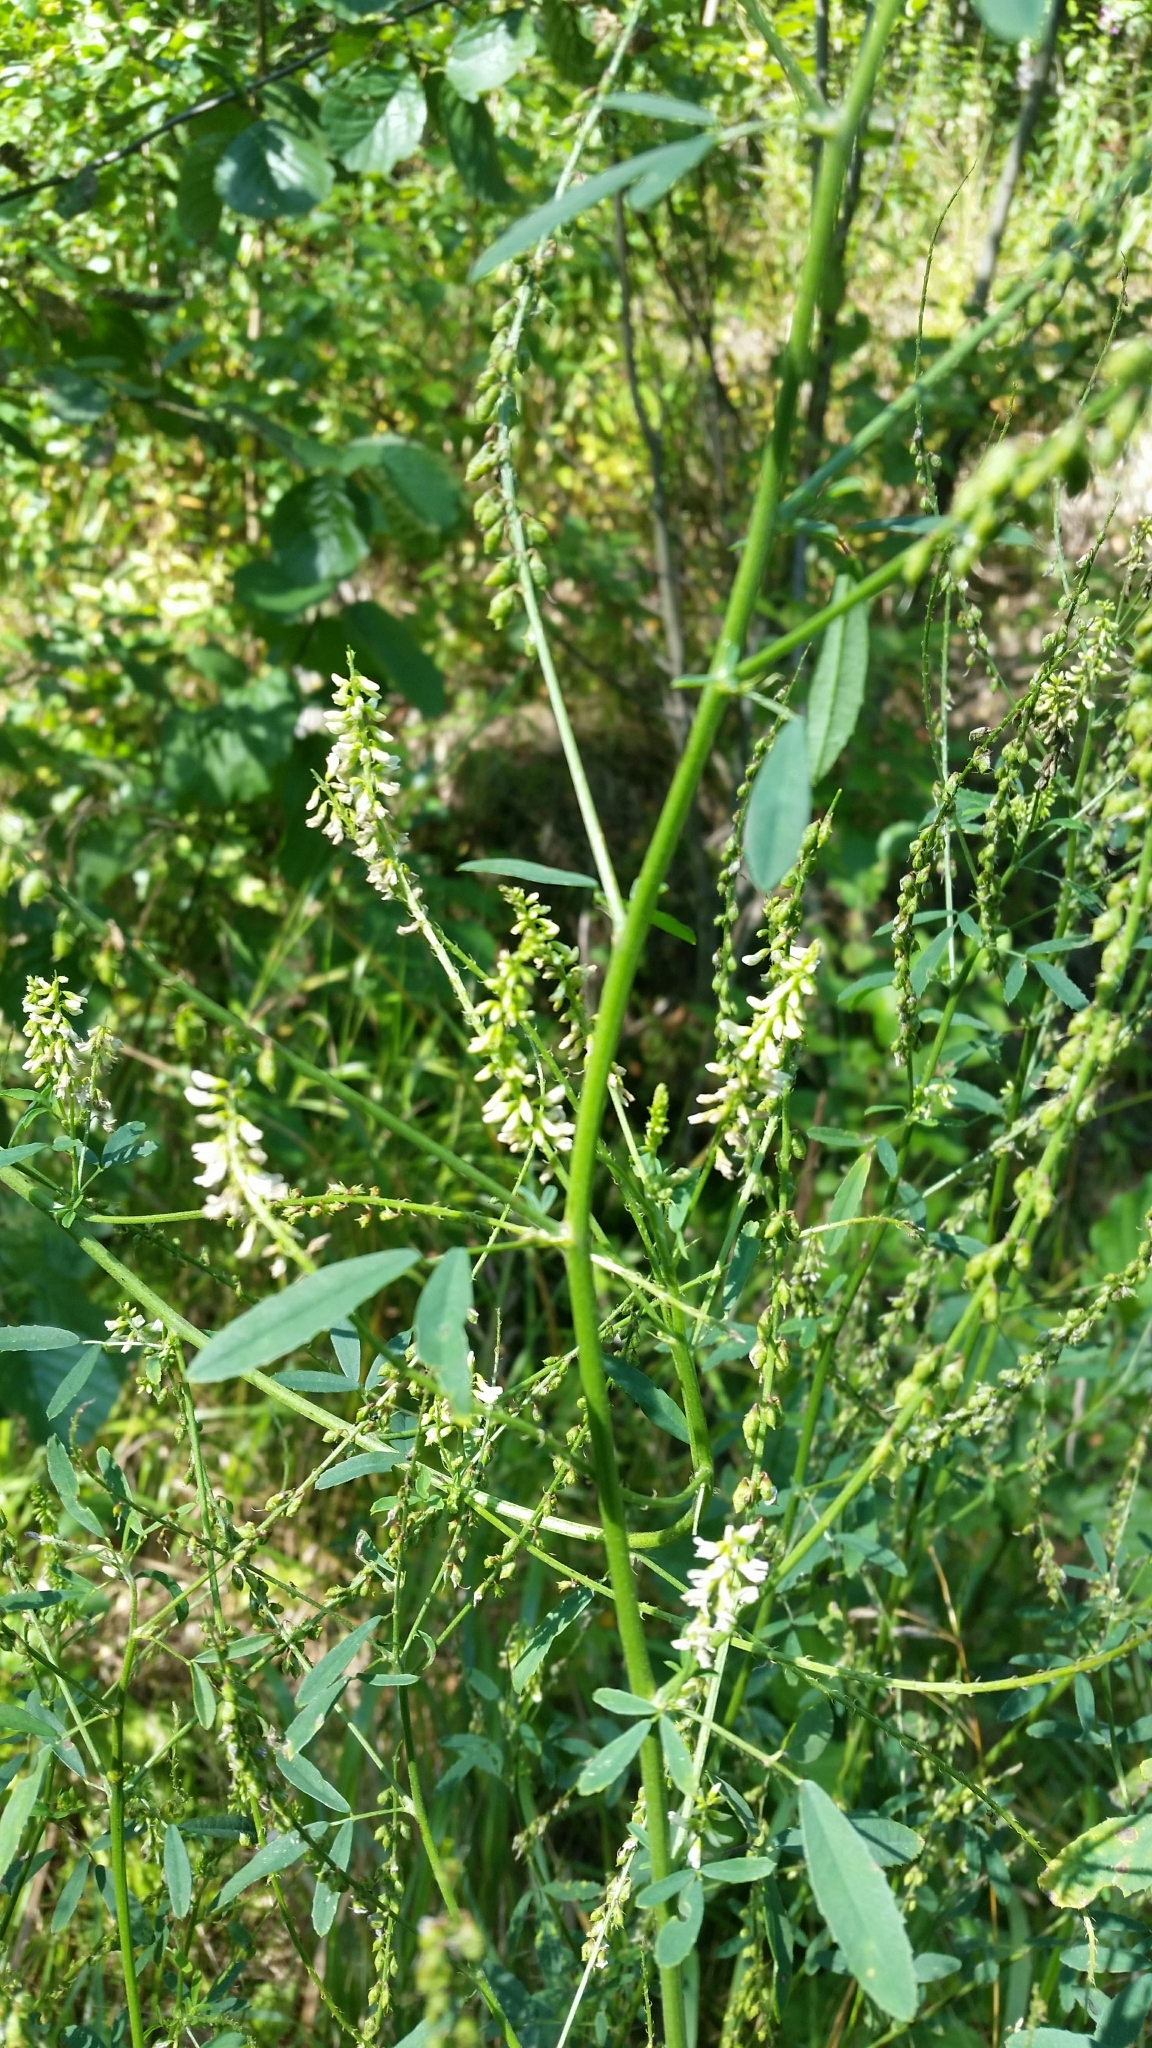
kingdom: Plantae
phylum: Tracheophyta
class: Magnoliopsida
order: Fabales
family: Fabaceae
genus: Melilotus
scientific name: Melilotus albus
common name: White melilot
